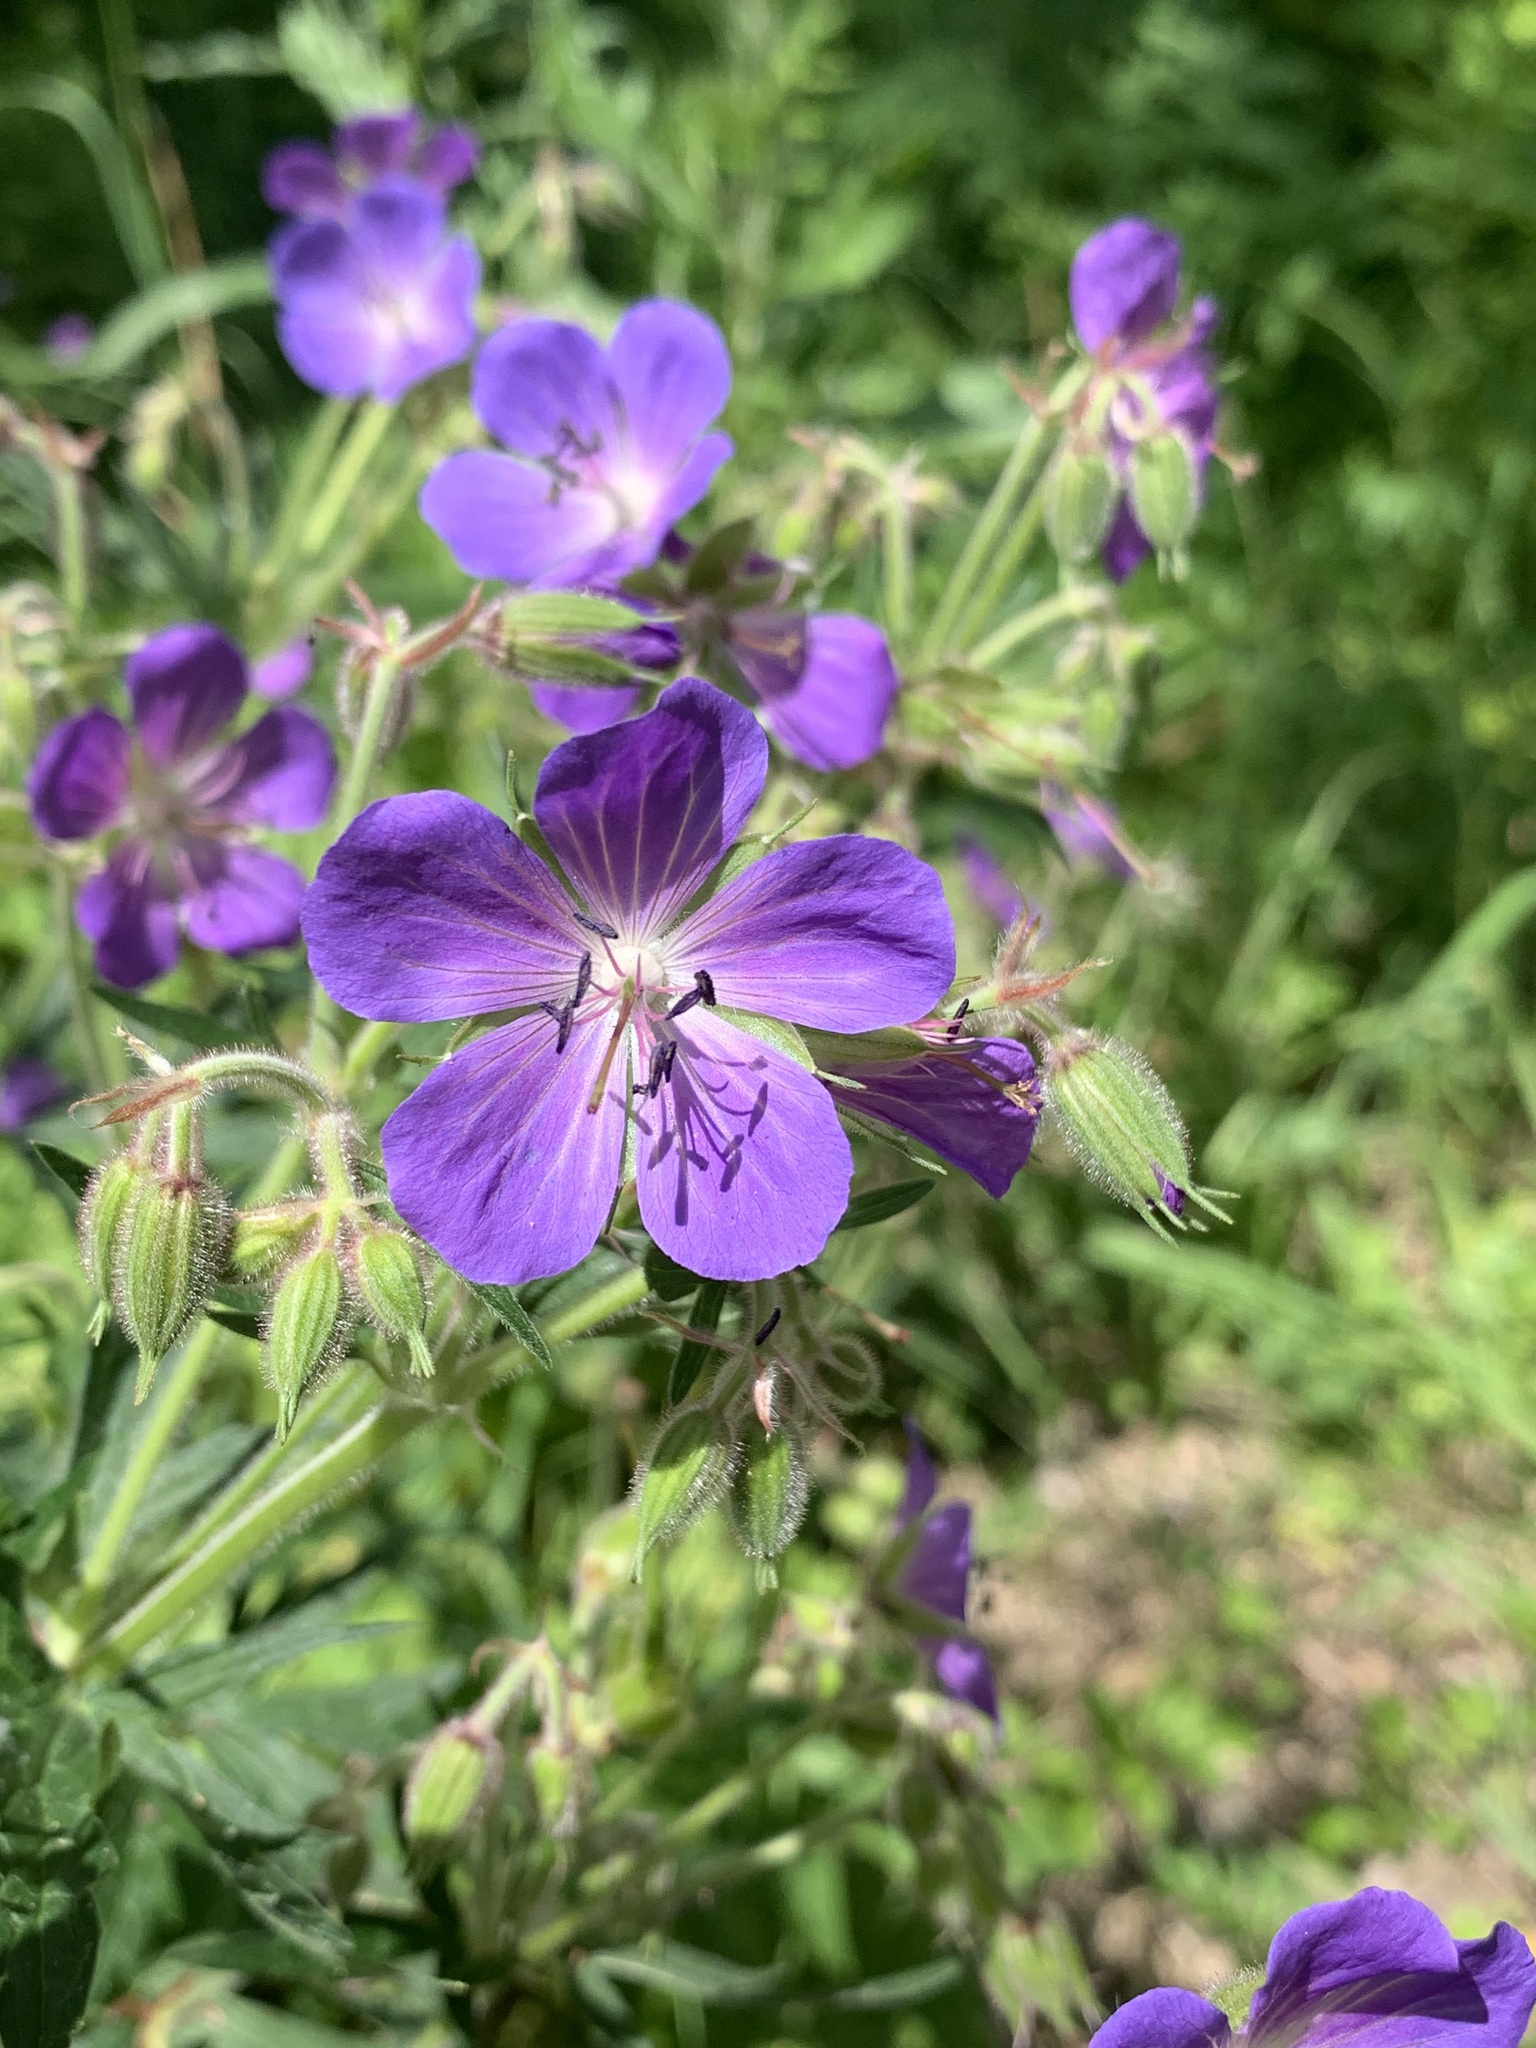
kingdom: Plantae
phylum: Tracheophyta
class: Magnoliopsida
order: Geraniales
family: Geraniaceae
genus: Geranium
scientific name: Geranium pratense
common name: Meadow crane's-bill
